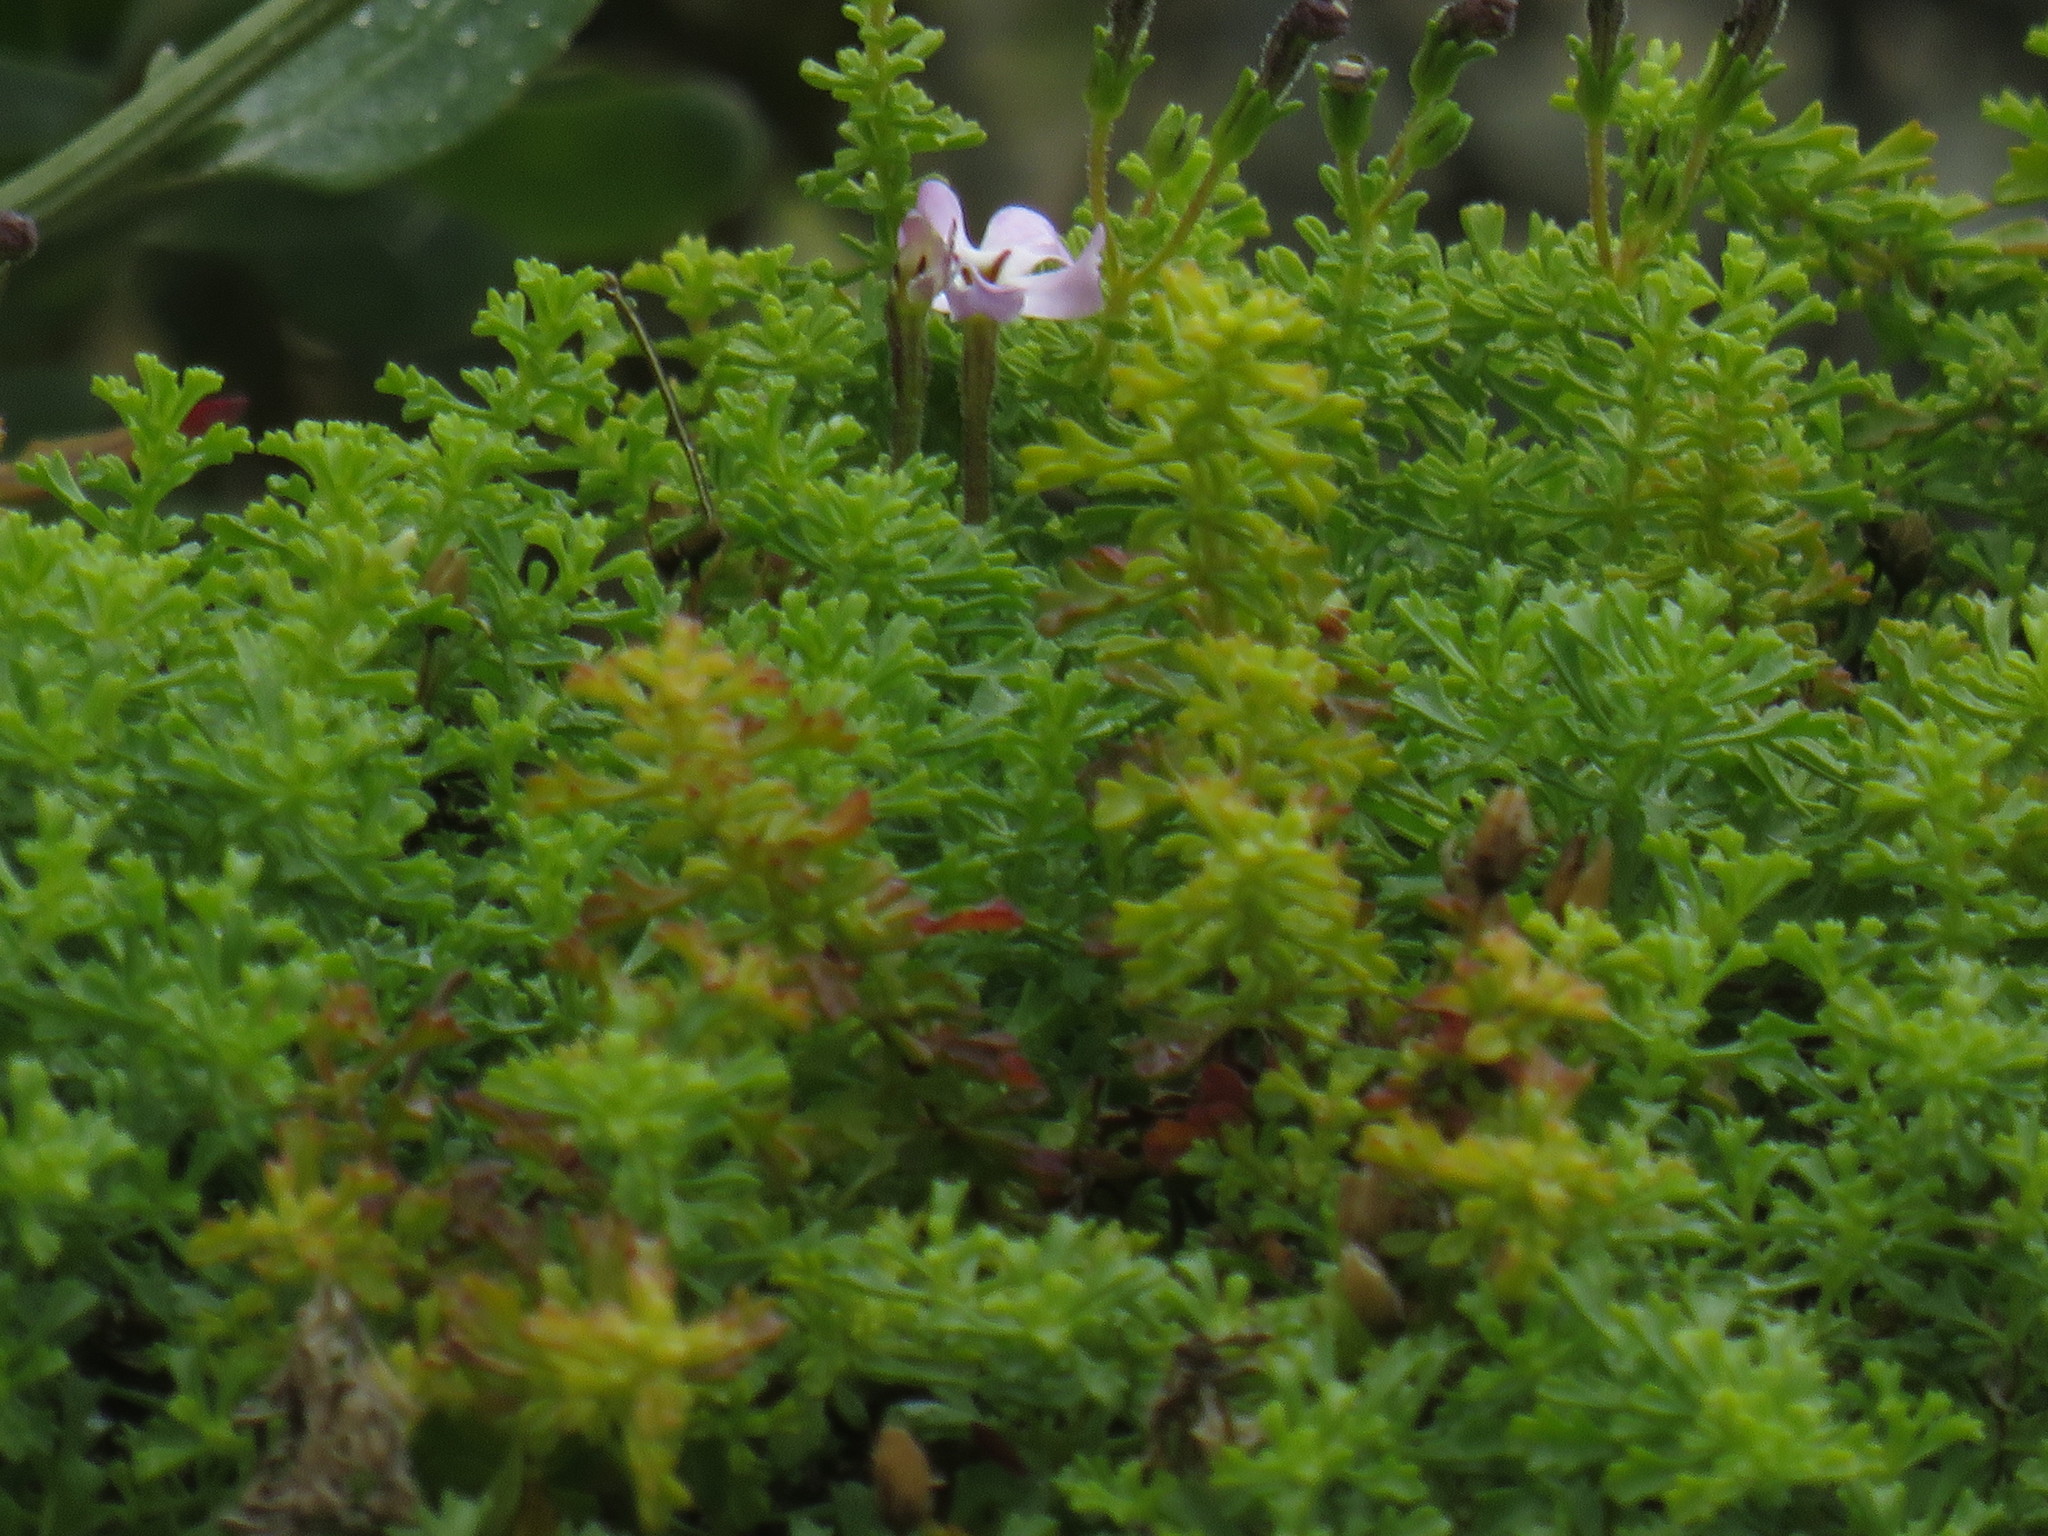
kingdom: Plantae
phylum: Tracheophyta
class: Magnoliopsida
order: Lamiales
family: Scrophulariaceae
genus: Jamesbrittenia
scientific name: Jamesbrittenia stellata
